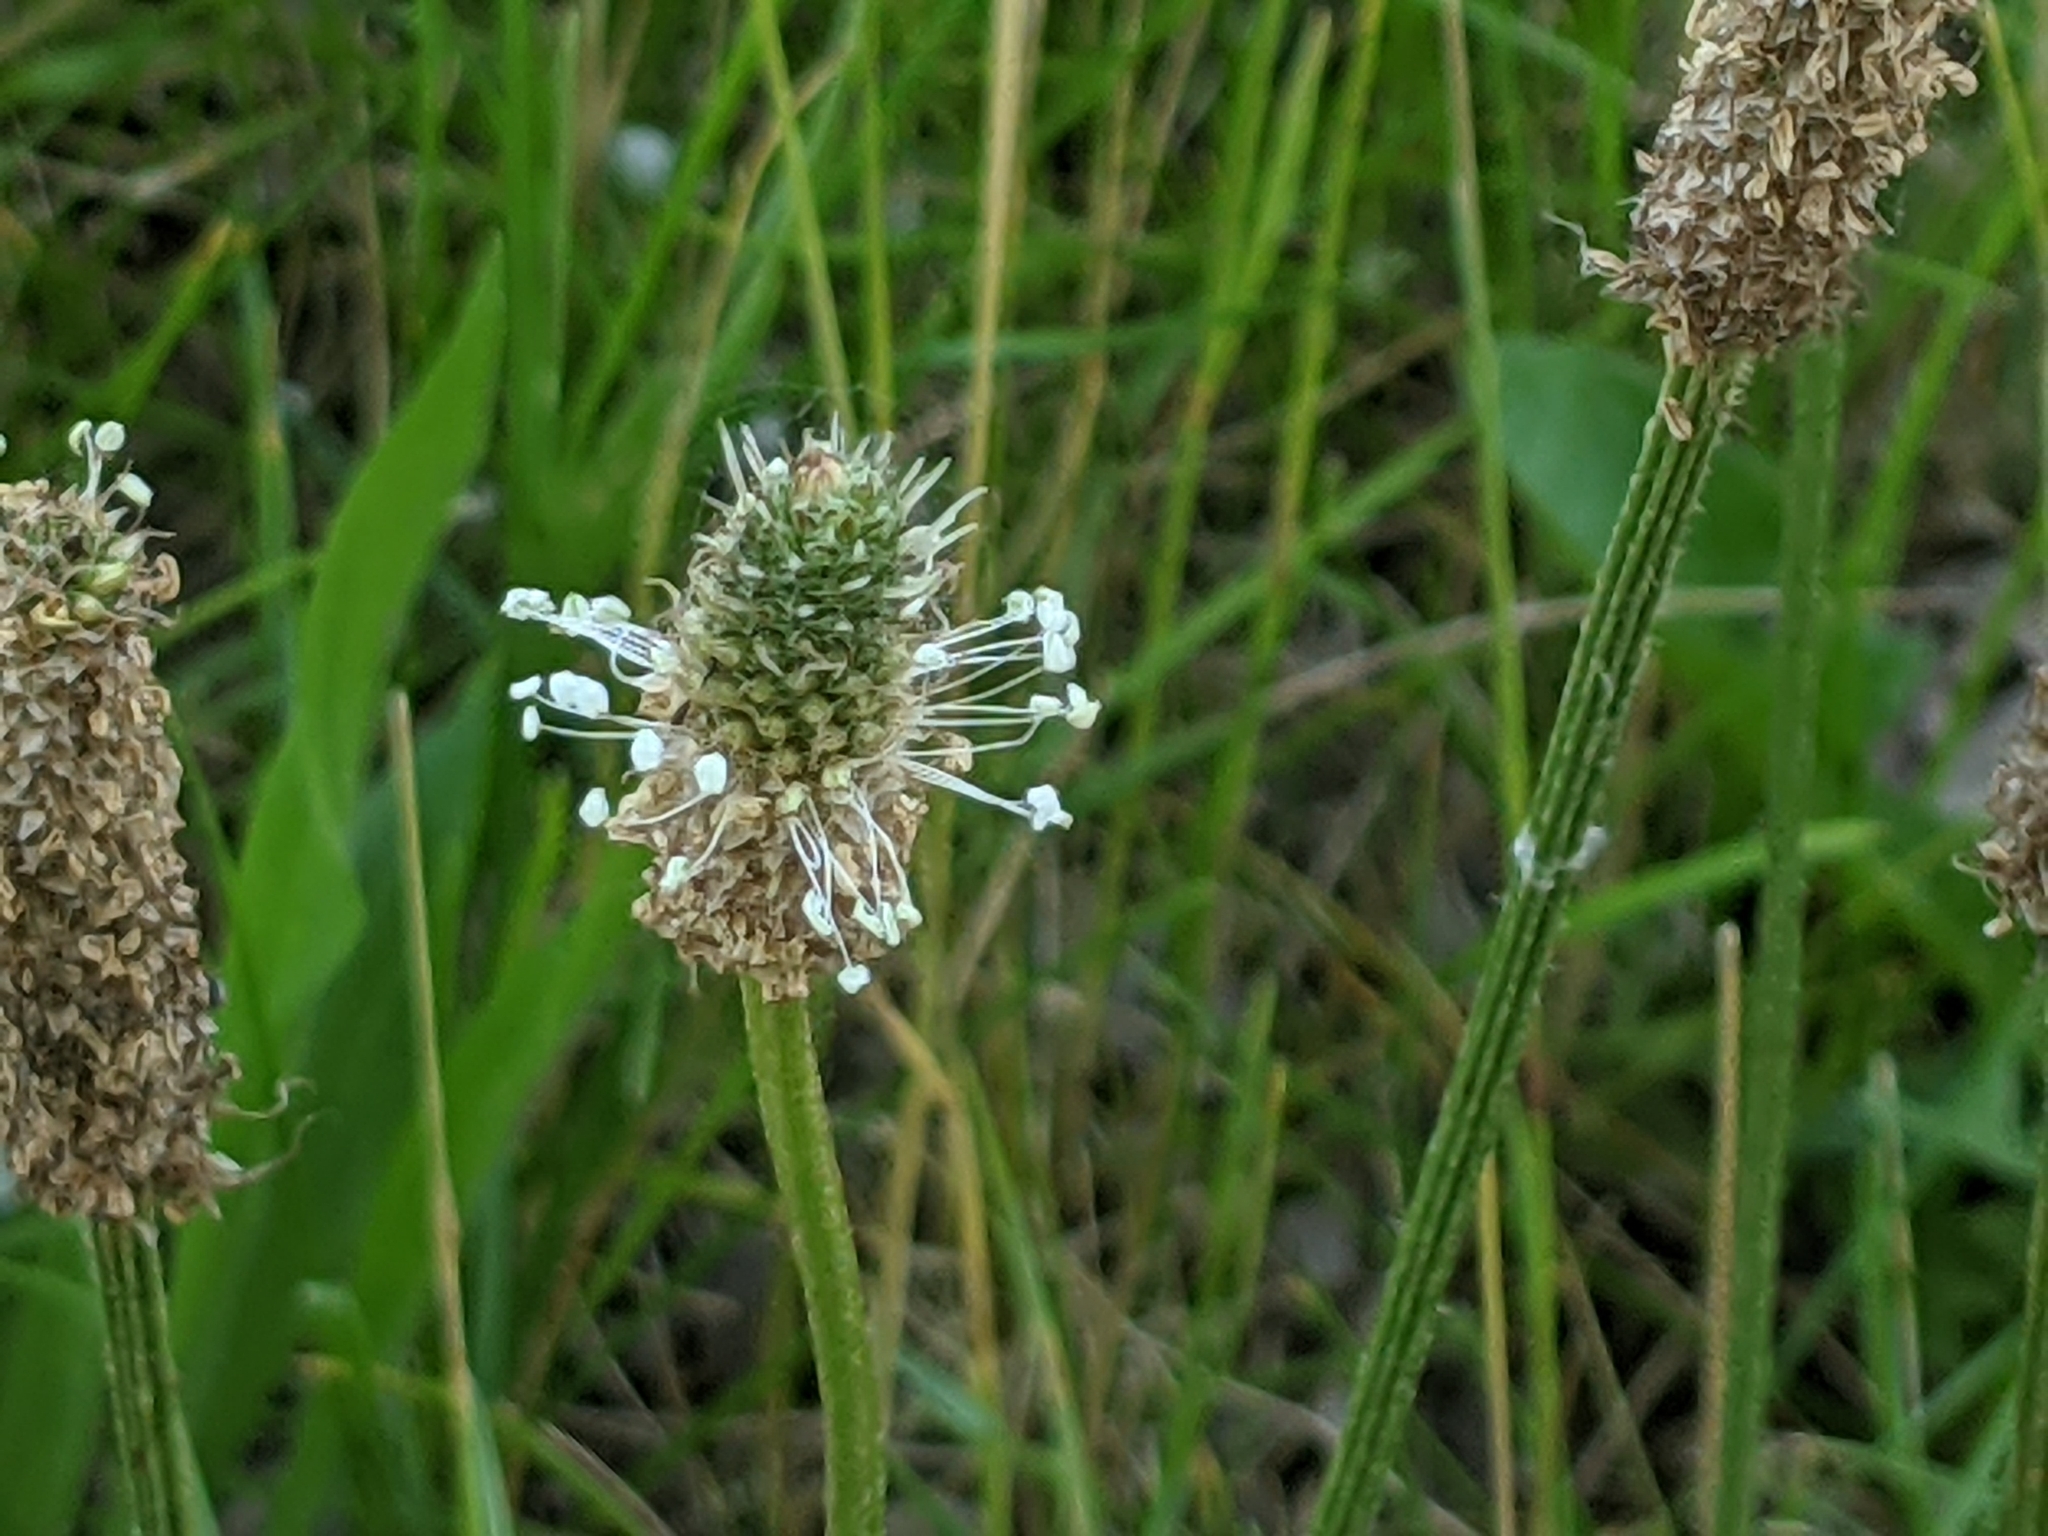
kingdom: Plantae
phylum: Tracheophyta
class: Magnoliopsida
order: Lamiales
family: Plantaginaceae
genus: Plantago
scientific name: Plantago lanceolata
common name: Ribwort plantain
